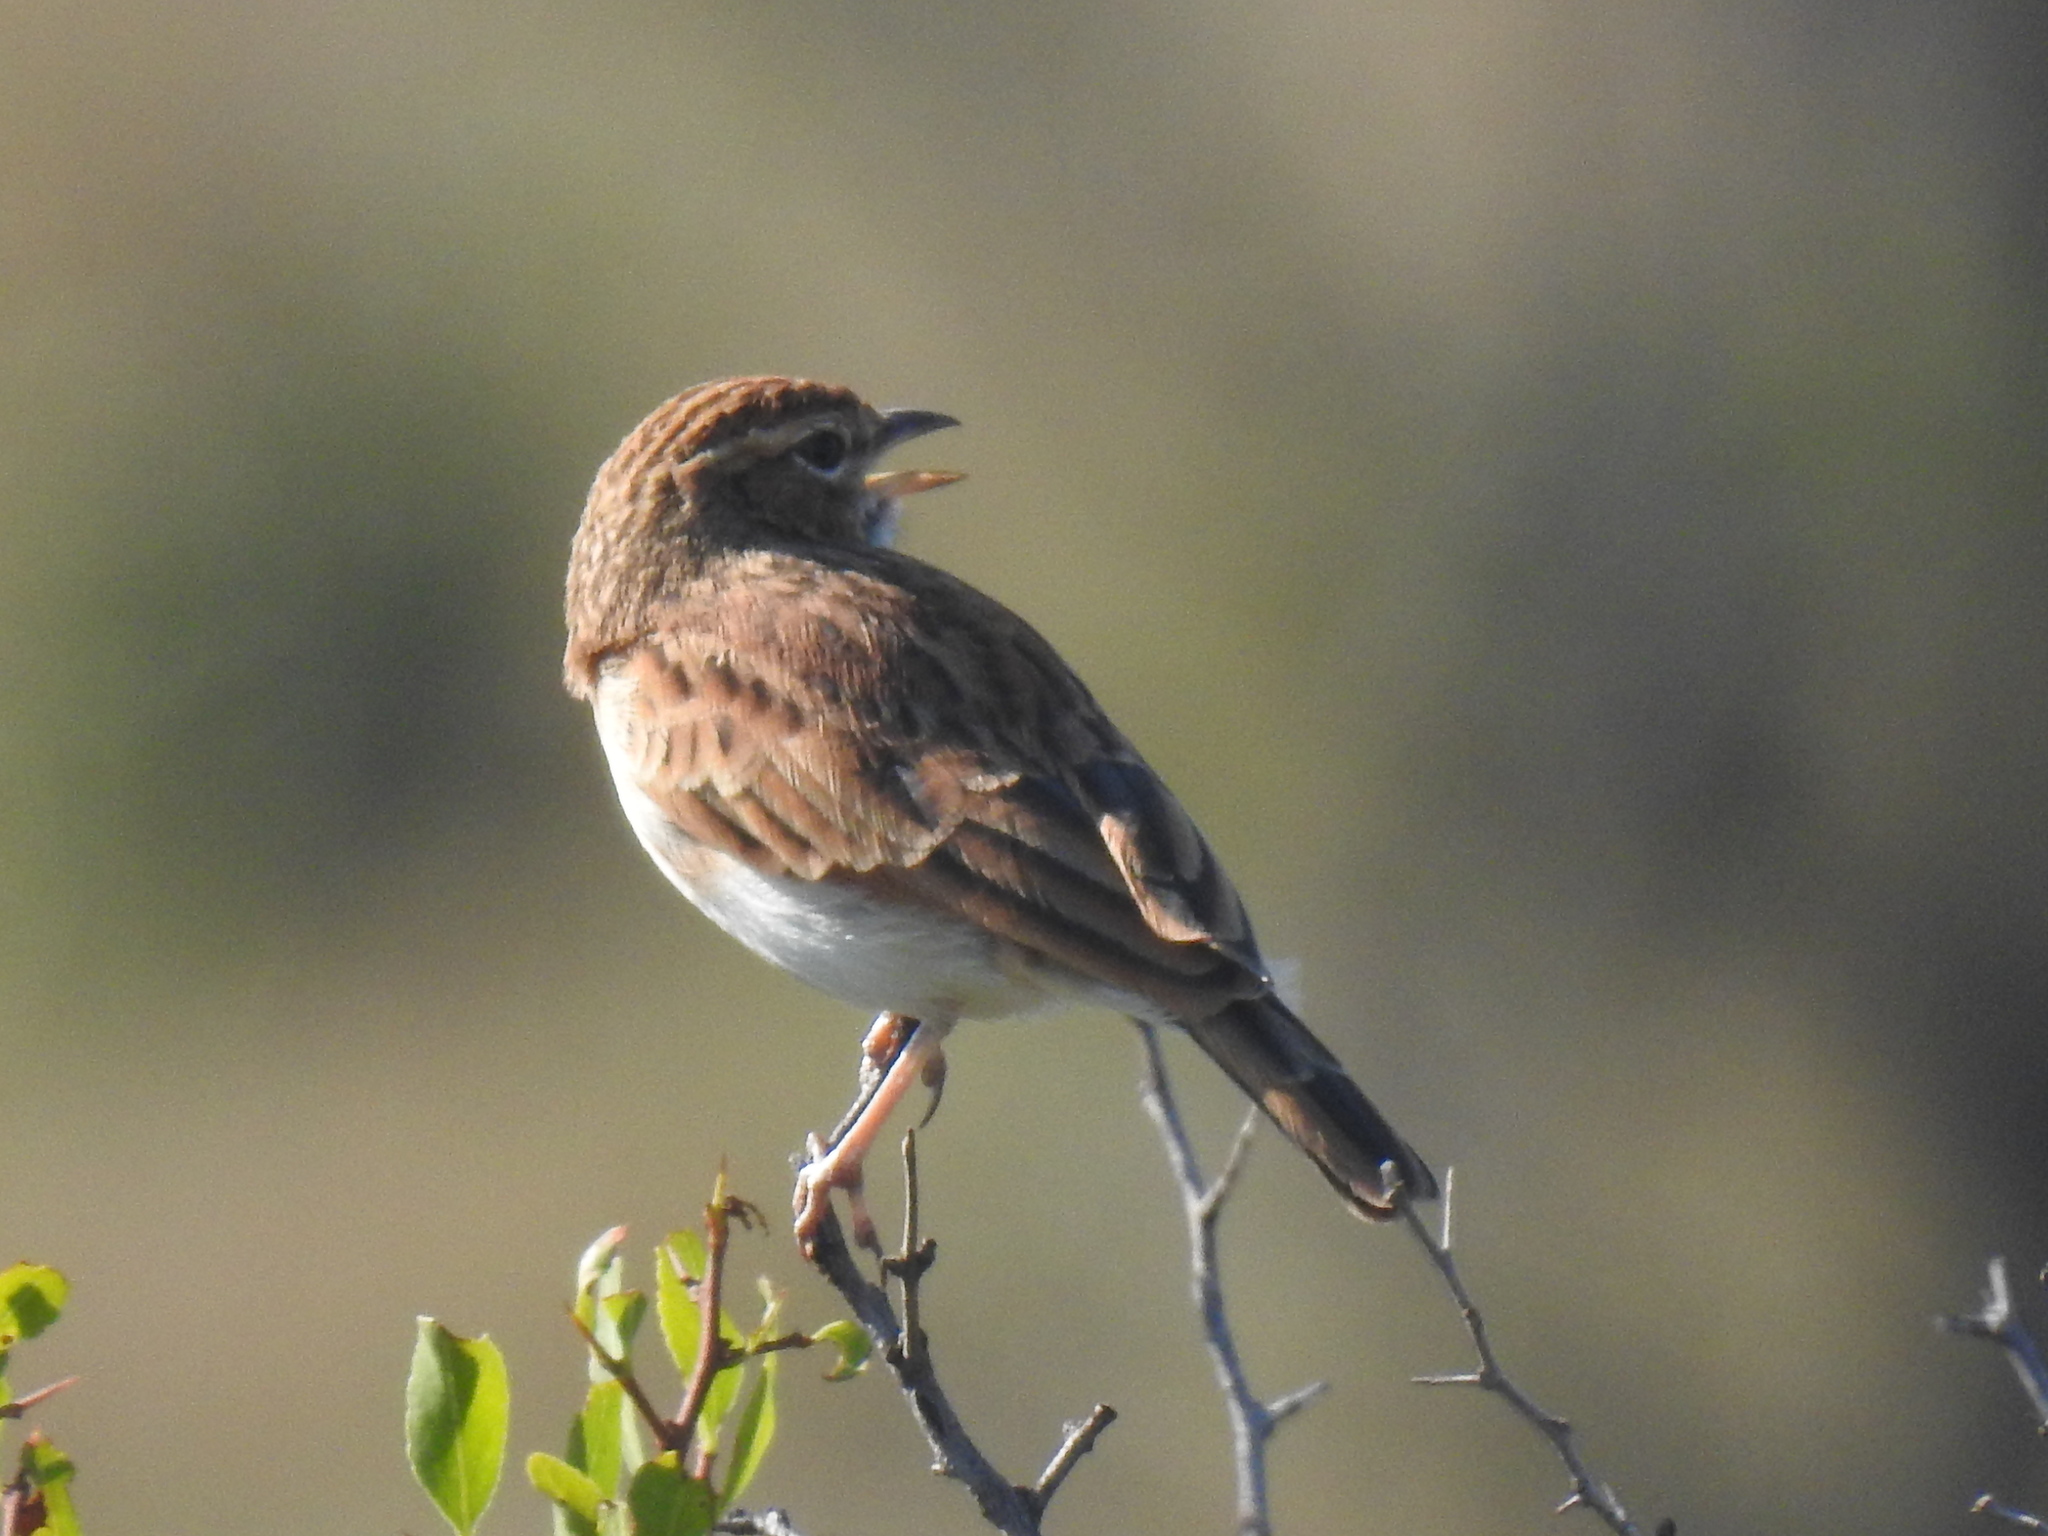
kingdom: Animalia
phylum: Chordata
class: Aves
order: Passeriformes
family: Alaudidae
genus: Calendulauda
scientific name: Calendulauda africanoides
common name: Fawn-colored lark
